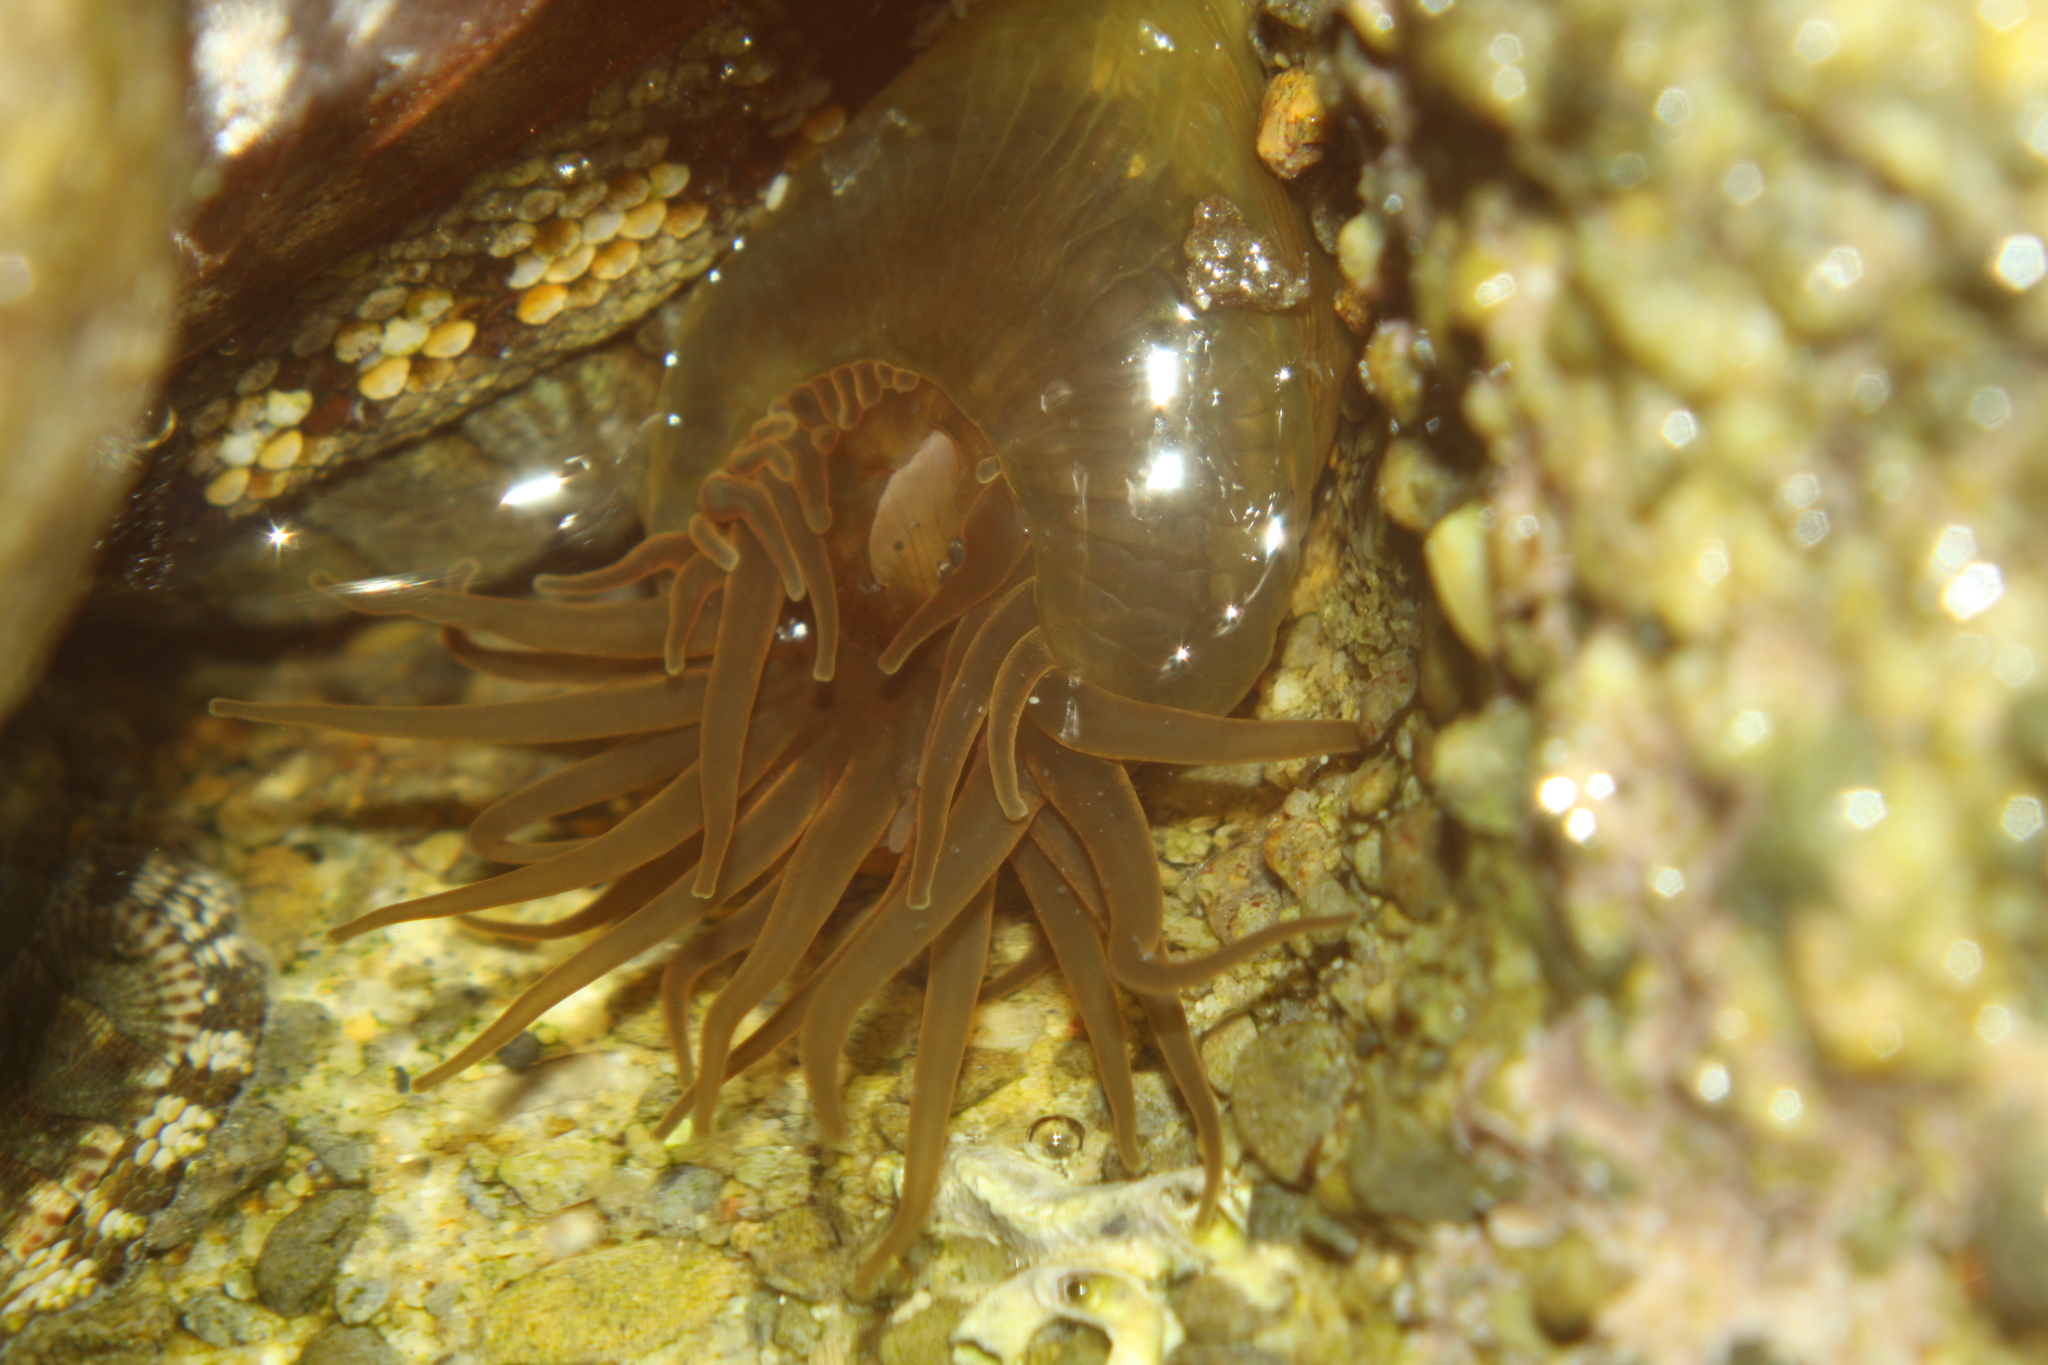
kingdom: Animalia
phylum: Cnidaria
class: Anthozoa
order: Actiniaria
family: Actiniidae
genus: Isactinia
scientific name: Isactinia olivacea
